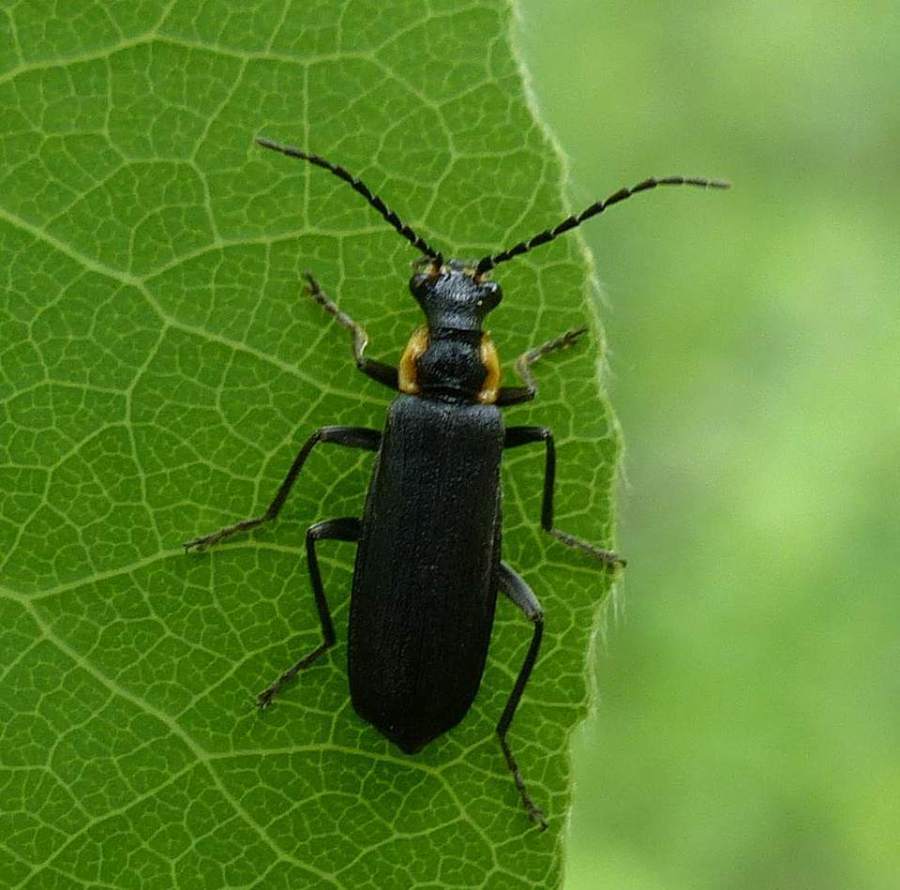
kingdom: Animalia
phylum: Arthropoda
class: Insecta
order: Coleoptera
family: Cantharidae
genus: Podabrus
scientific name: Podabrus rugosulus
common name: Wrinkled soldier beetle
